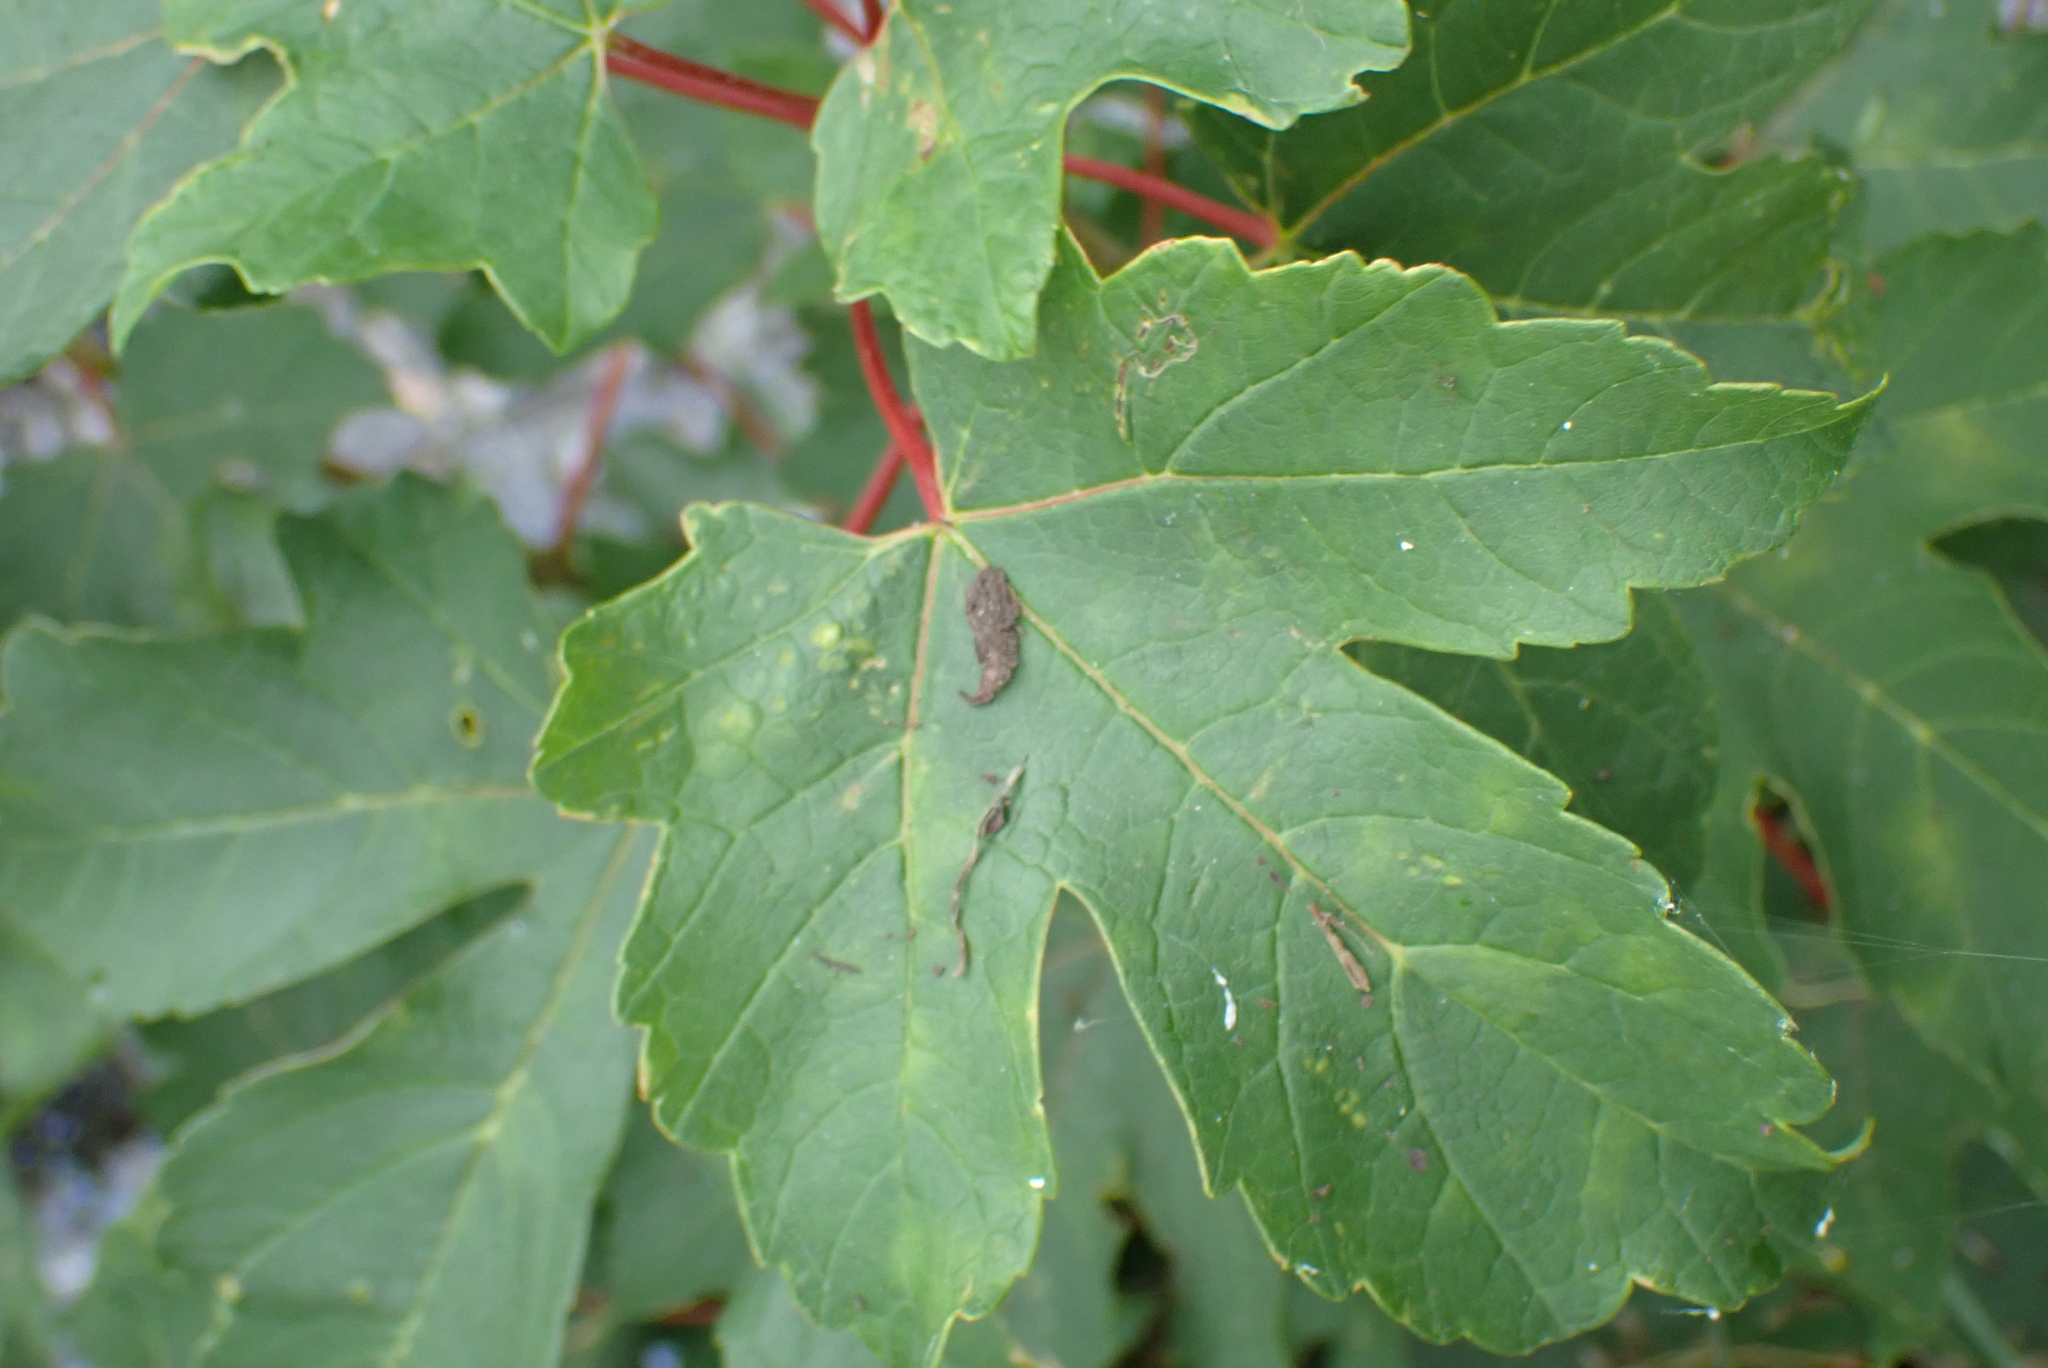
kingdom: Plantae
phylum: Tracheophyta
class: Magnoliopsida
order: Sapindales
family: Sapindaceae
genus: Acer
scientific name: Acer pseudoplatanus
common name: Sycamore
